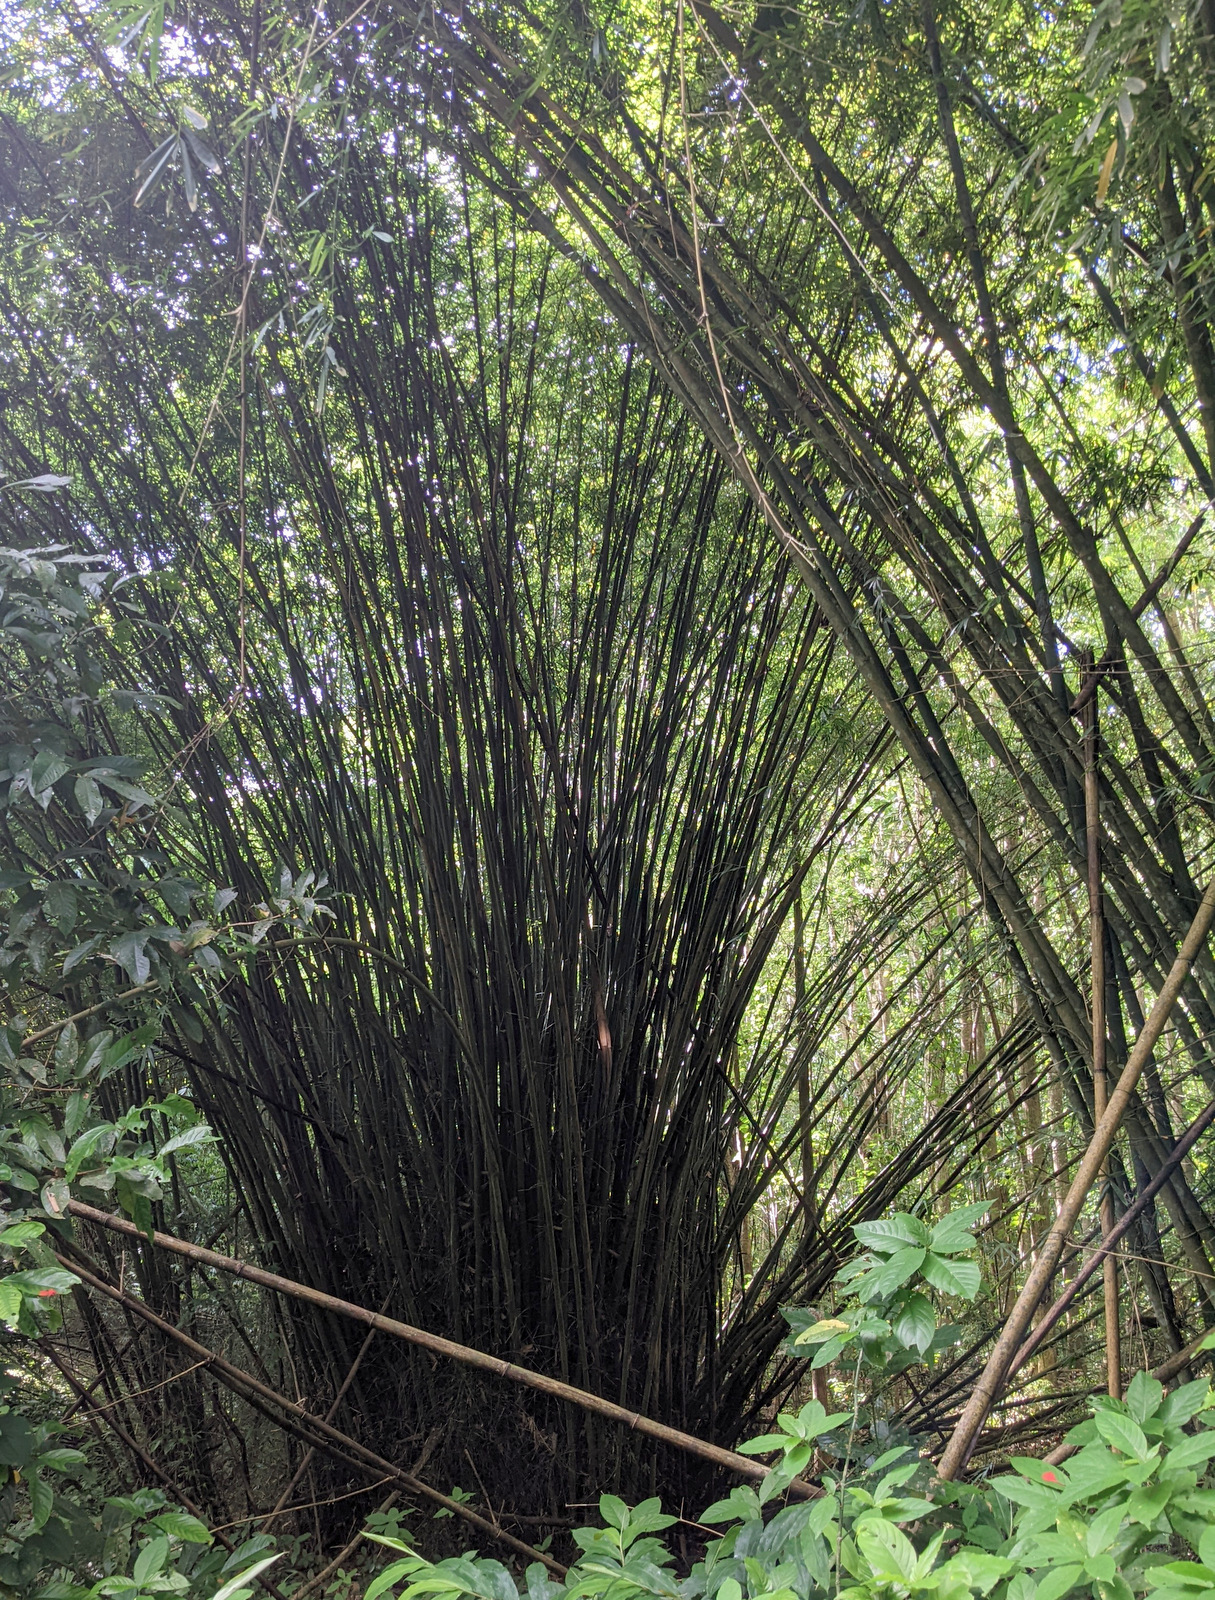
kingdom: Plantae
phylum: Tracheophyta
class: Liliopsida
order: Poales
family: Poaceae
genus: Bambusa
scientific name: Bambusa vulgaris
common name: Common bamboo
